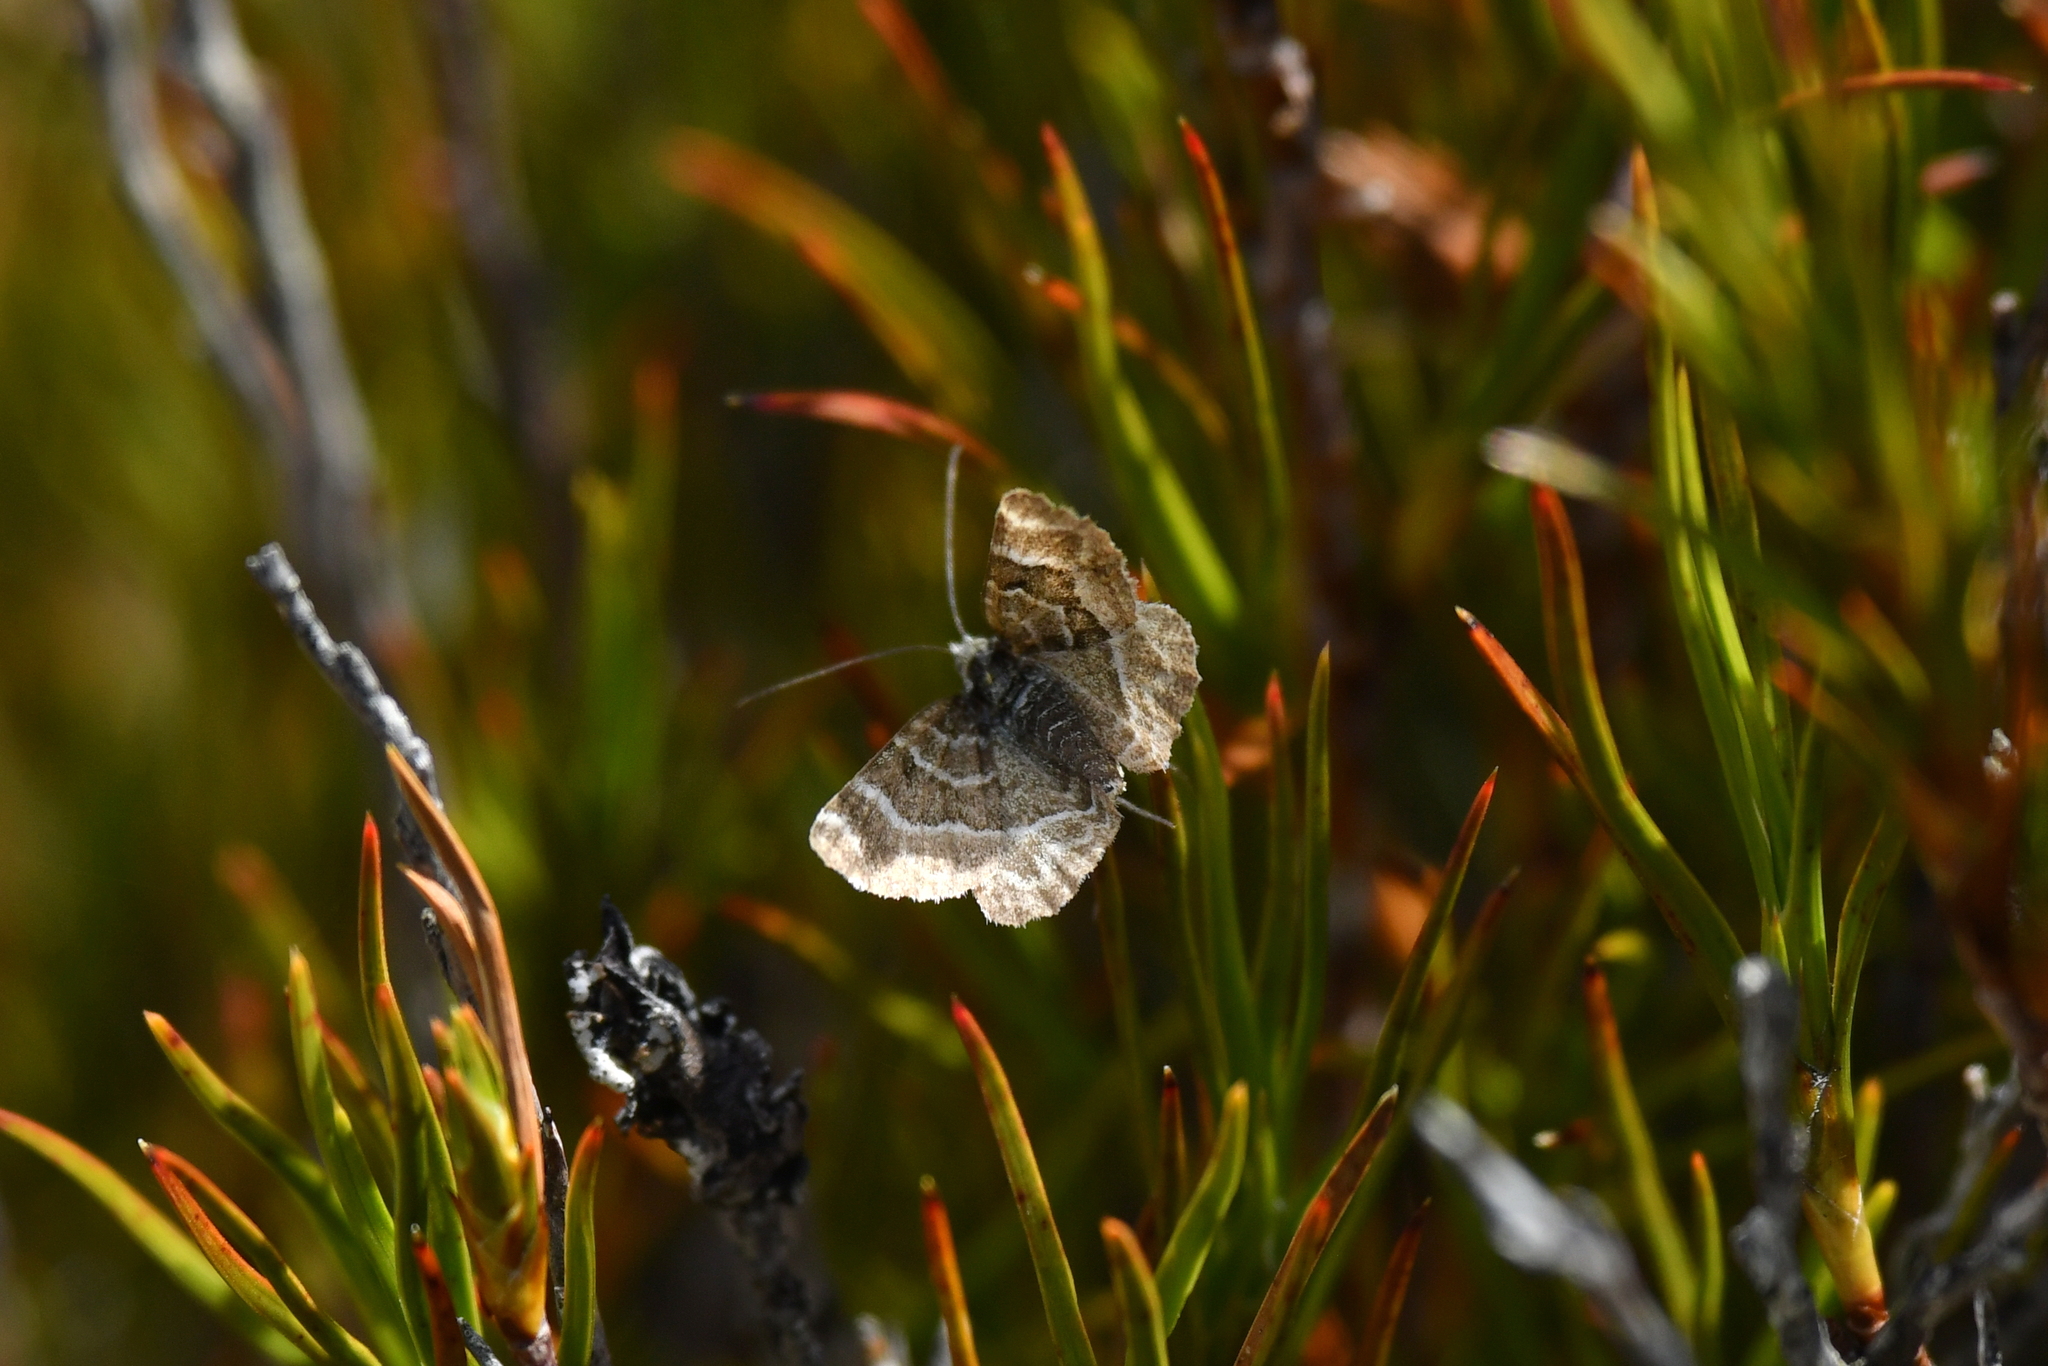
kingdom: Animalia
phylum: Arthropoda
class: Insecta
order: Lepidoptera
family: Geometridae
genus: Notoreas
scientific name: Notoreas paradelpha
